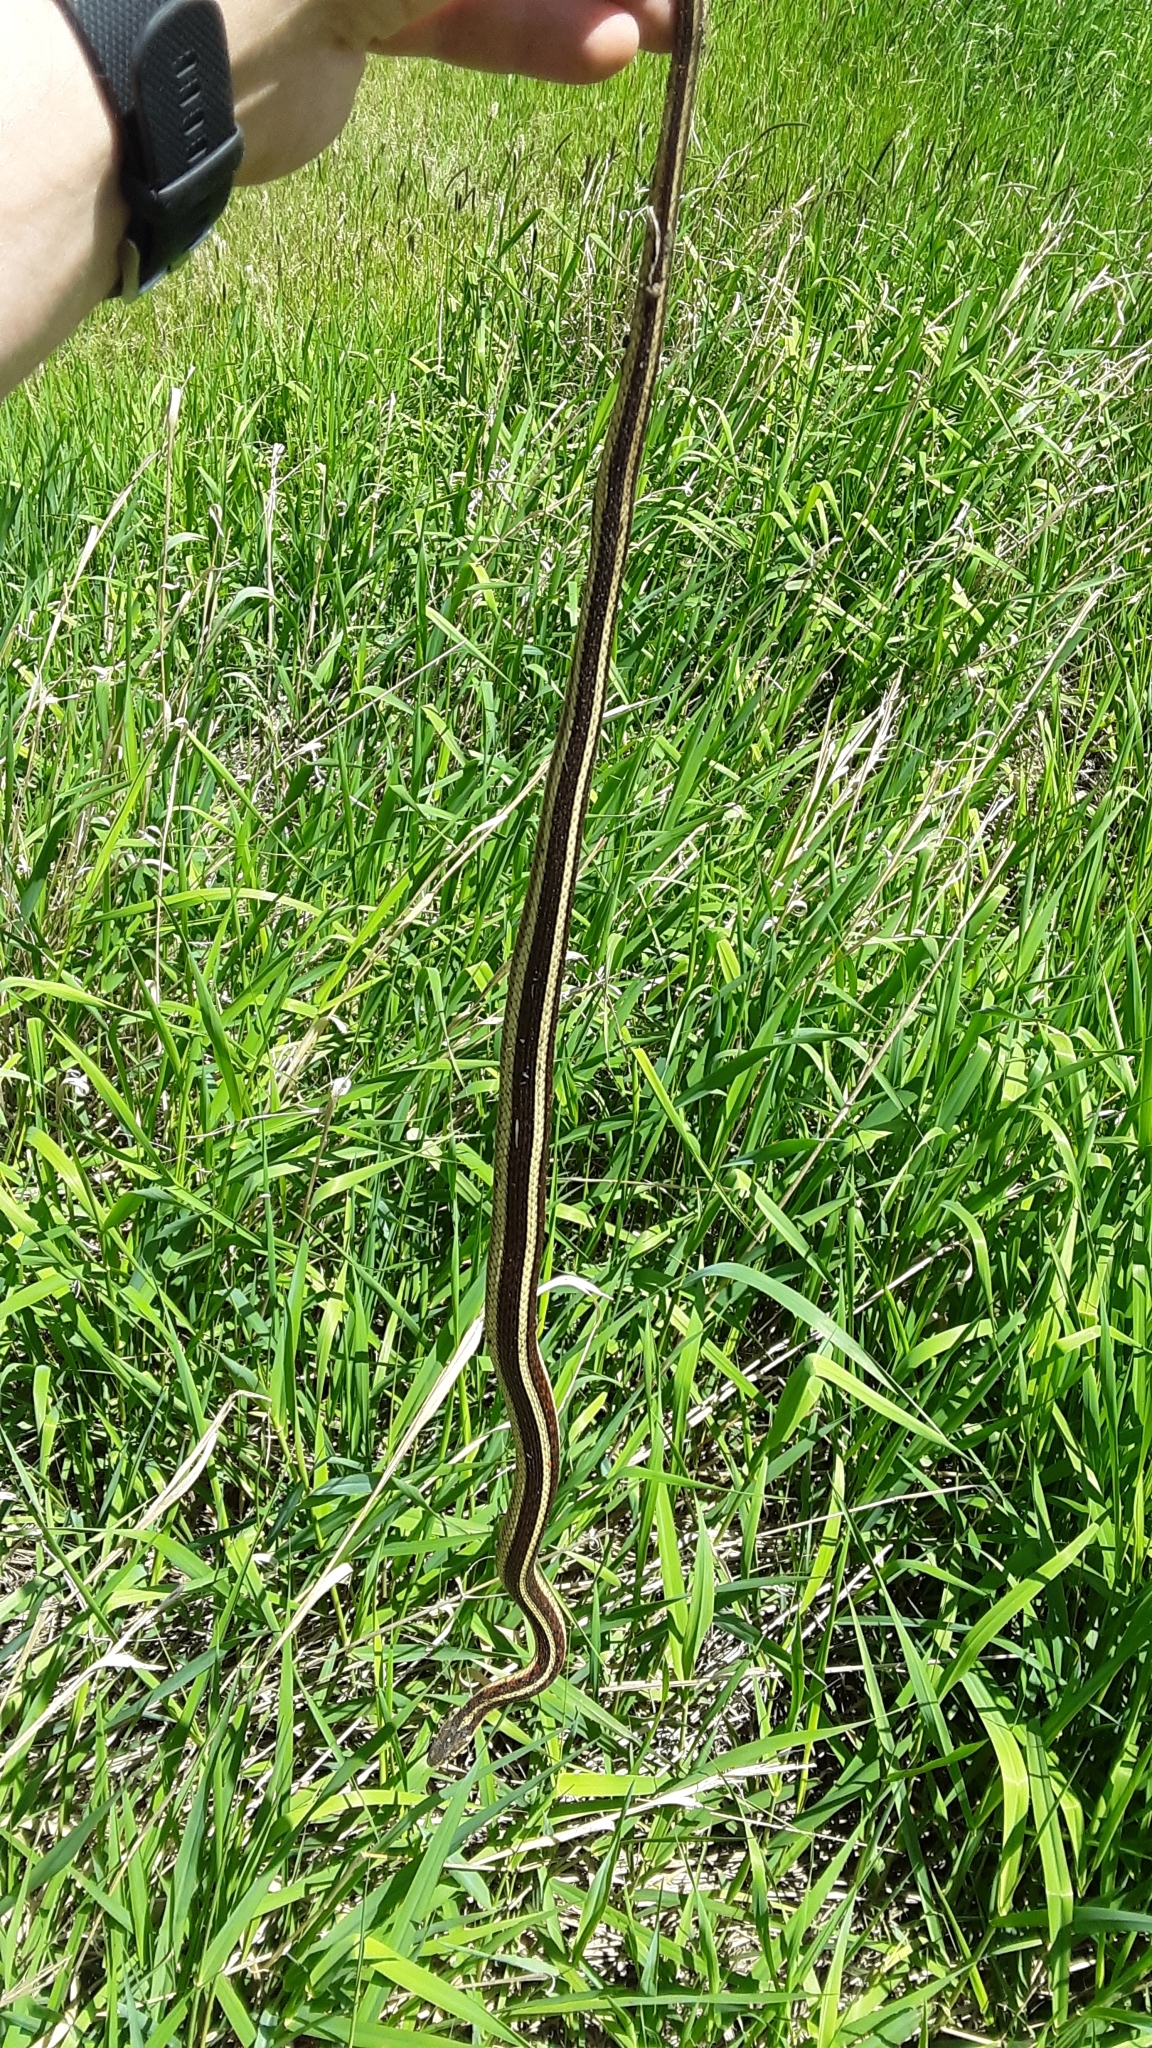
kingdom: Animalia
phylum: Chordata
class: Squamata
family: Colubridae
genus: Thamnophis
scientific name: Thamnophis sirtalis
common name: Common garter snake
